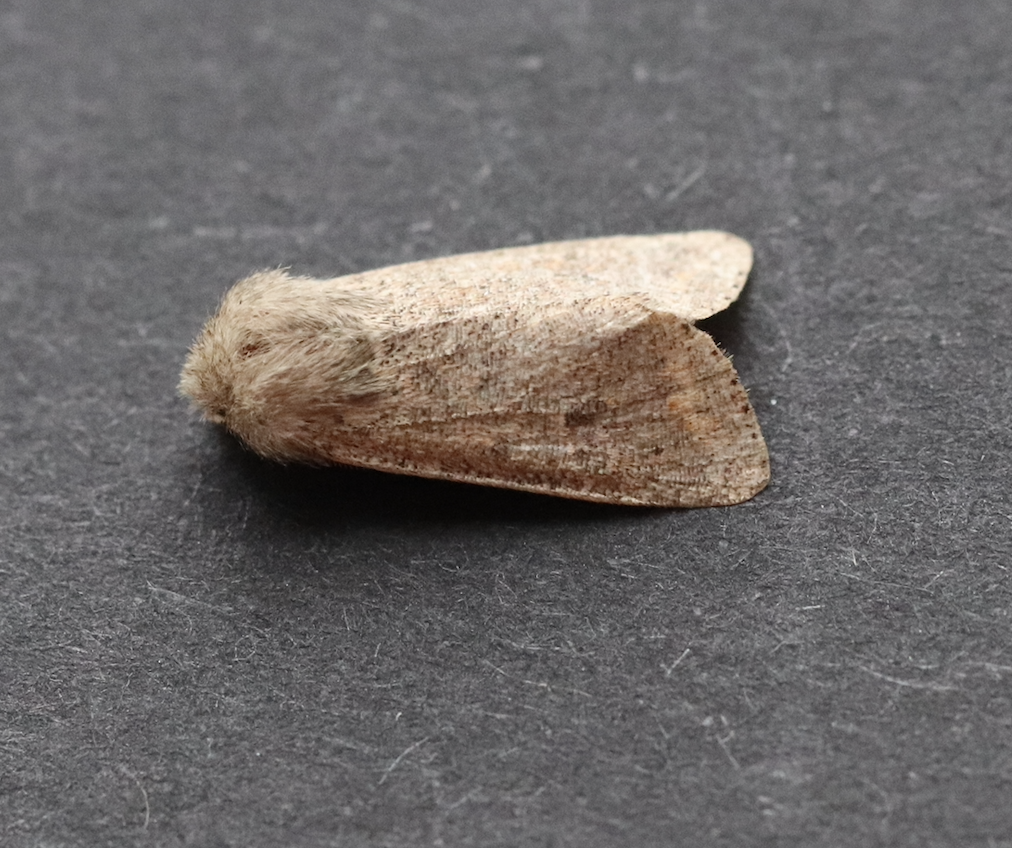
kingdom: Animalia
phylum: Arthropoda
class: Insecta
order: Lepidoptera
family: Noctuidae
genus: Orthosia
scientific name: Orthosia cruda
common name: Small quaker
